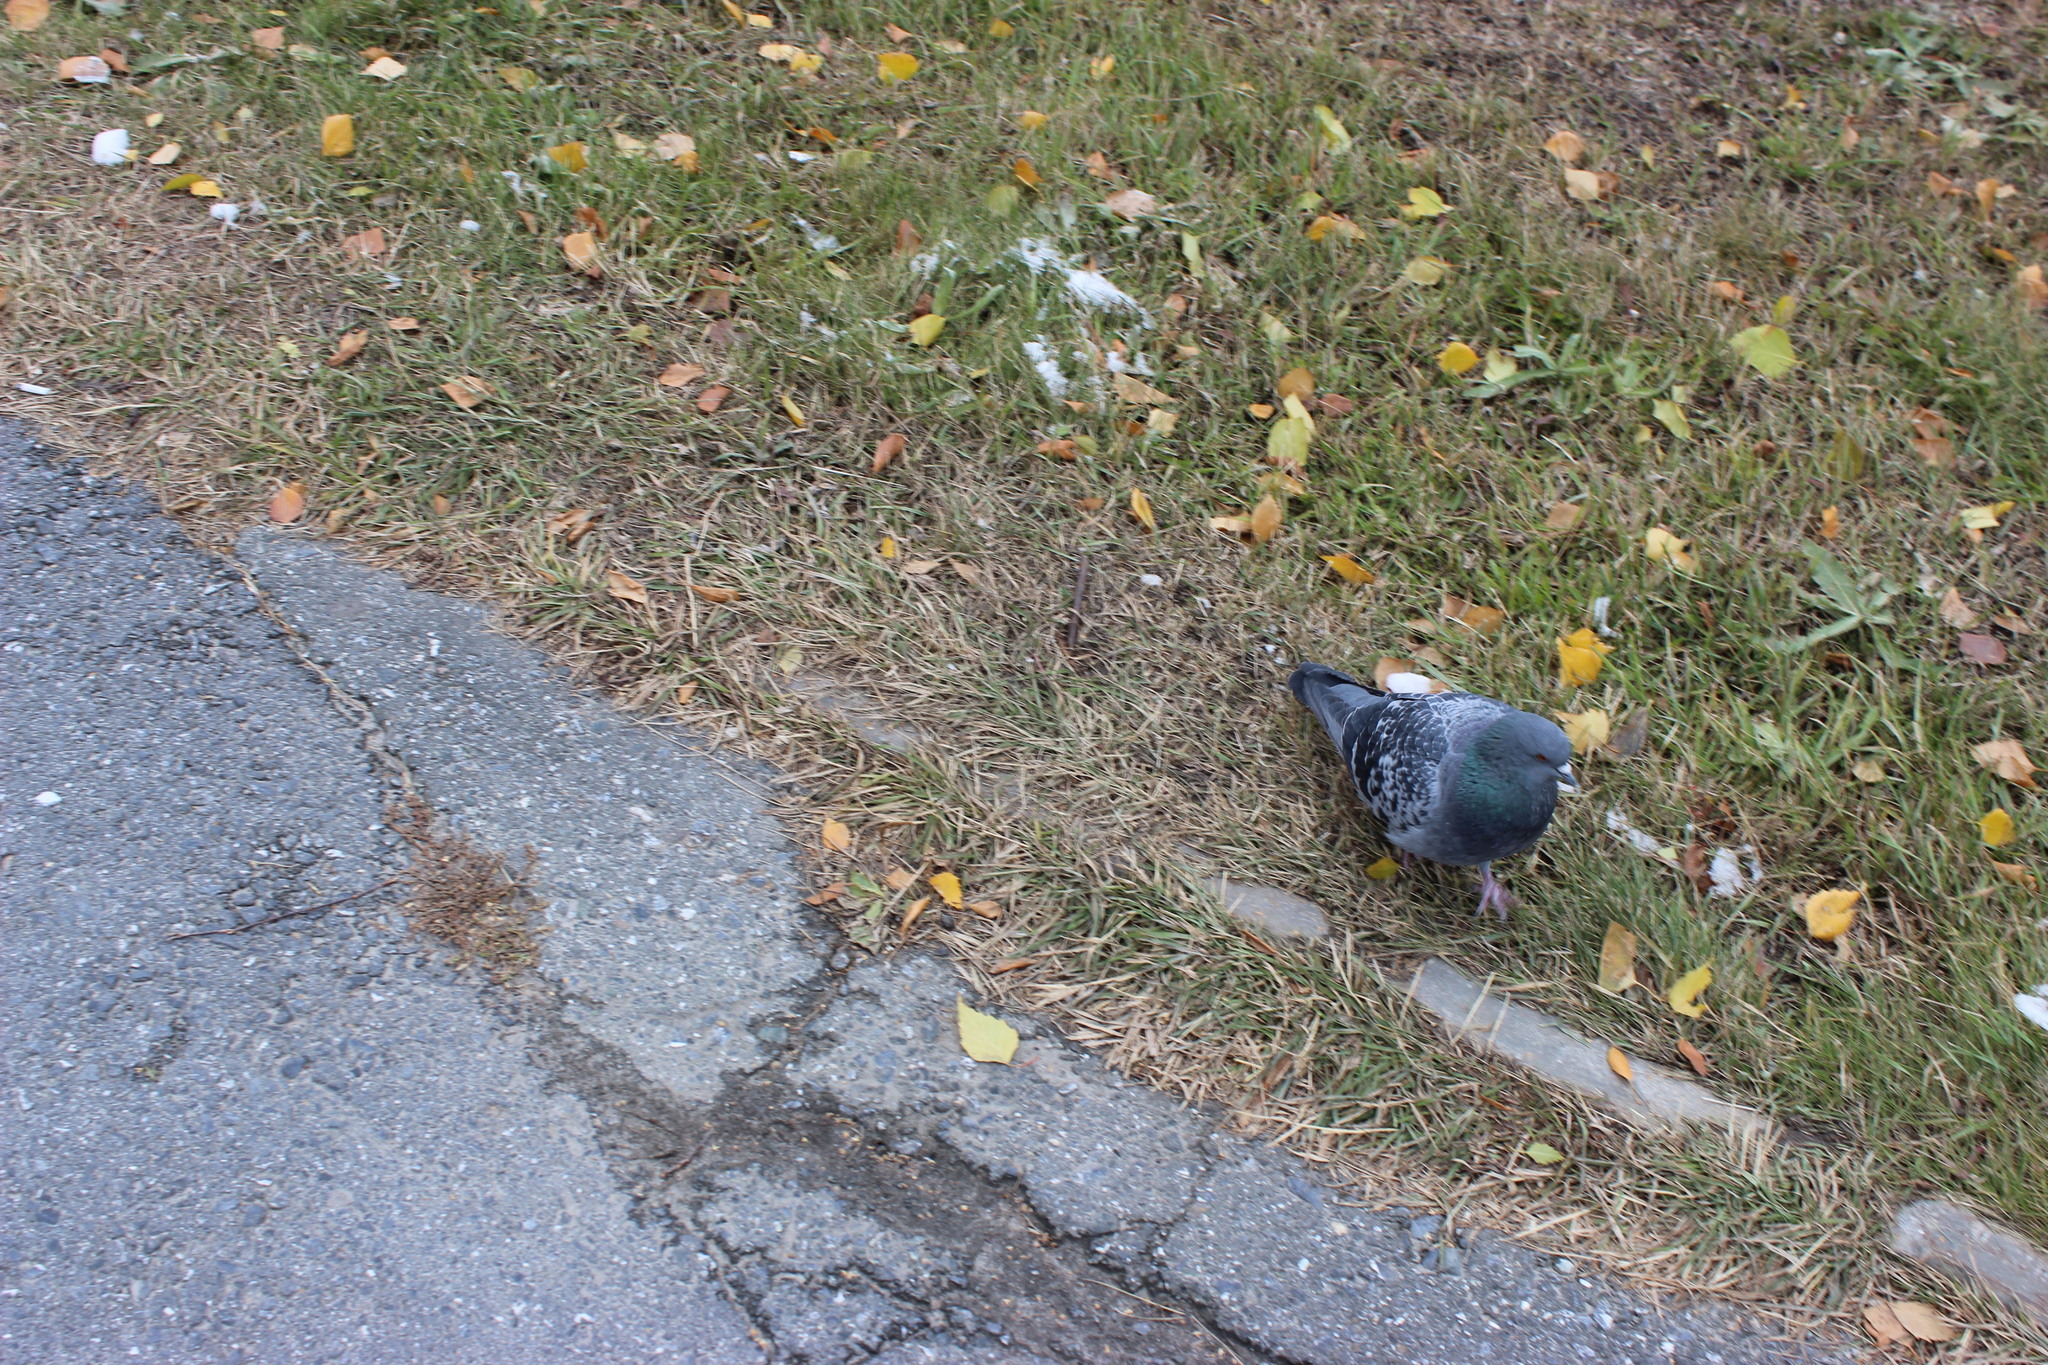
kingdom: Animalia
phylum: Chordata
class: Aves
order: Columbiformes
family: Columbidae
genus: Columba
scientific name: Columba livia
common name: Rock pigeon
